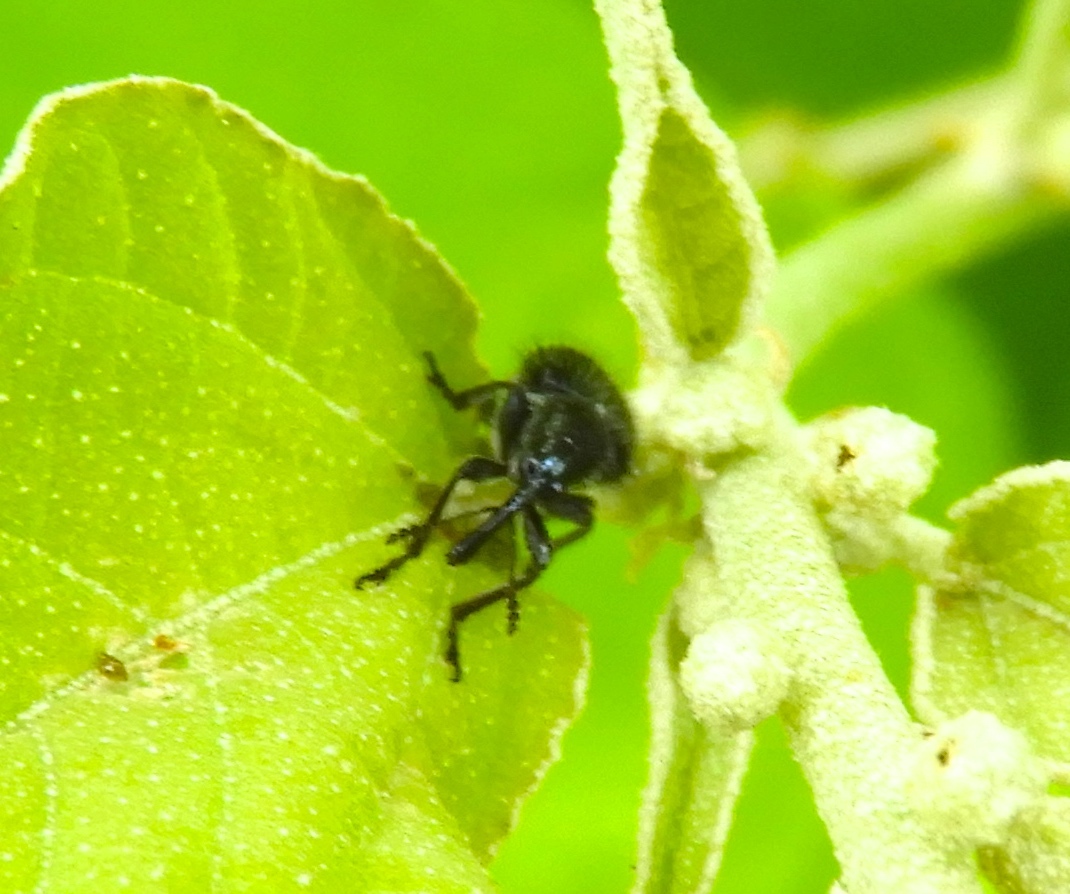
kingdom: Animalia
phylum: Arthropoda
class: Insecta
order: Coleoptera
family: Rhynchitidae
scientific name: Rhynchitidae
